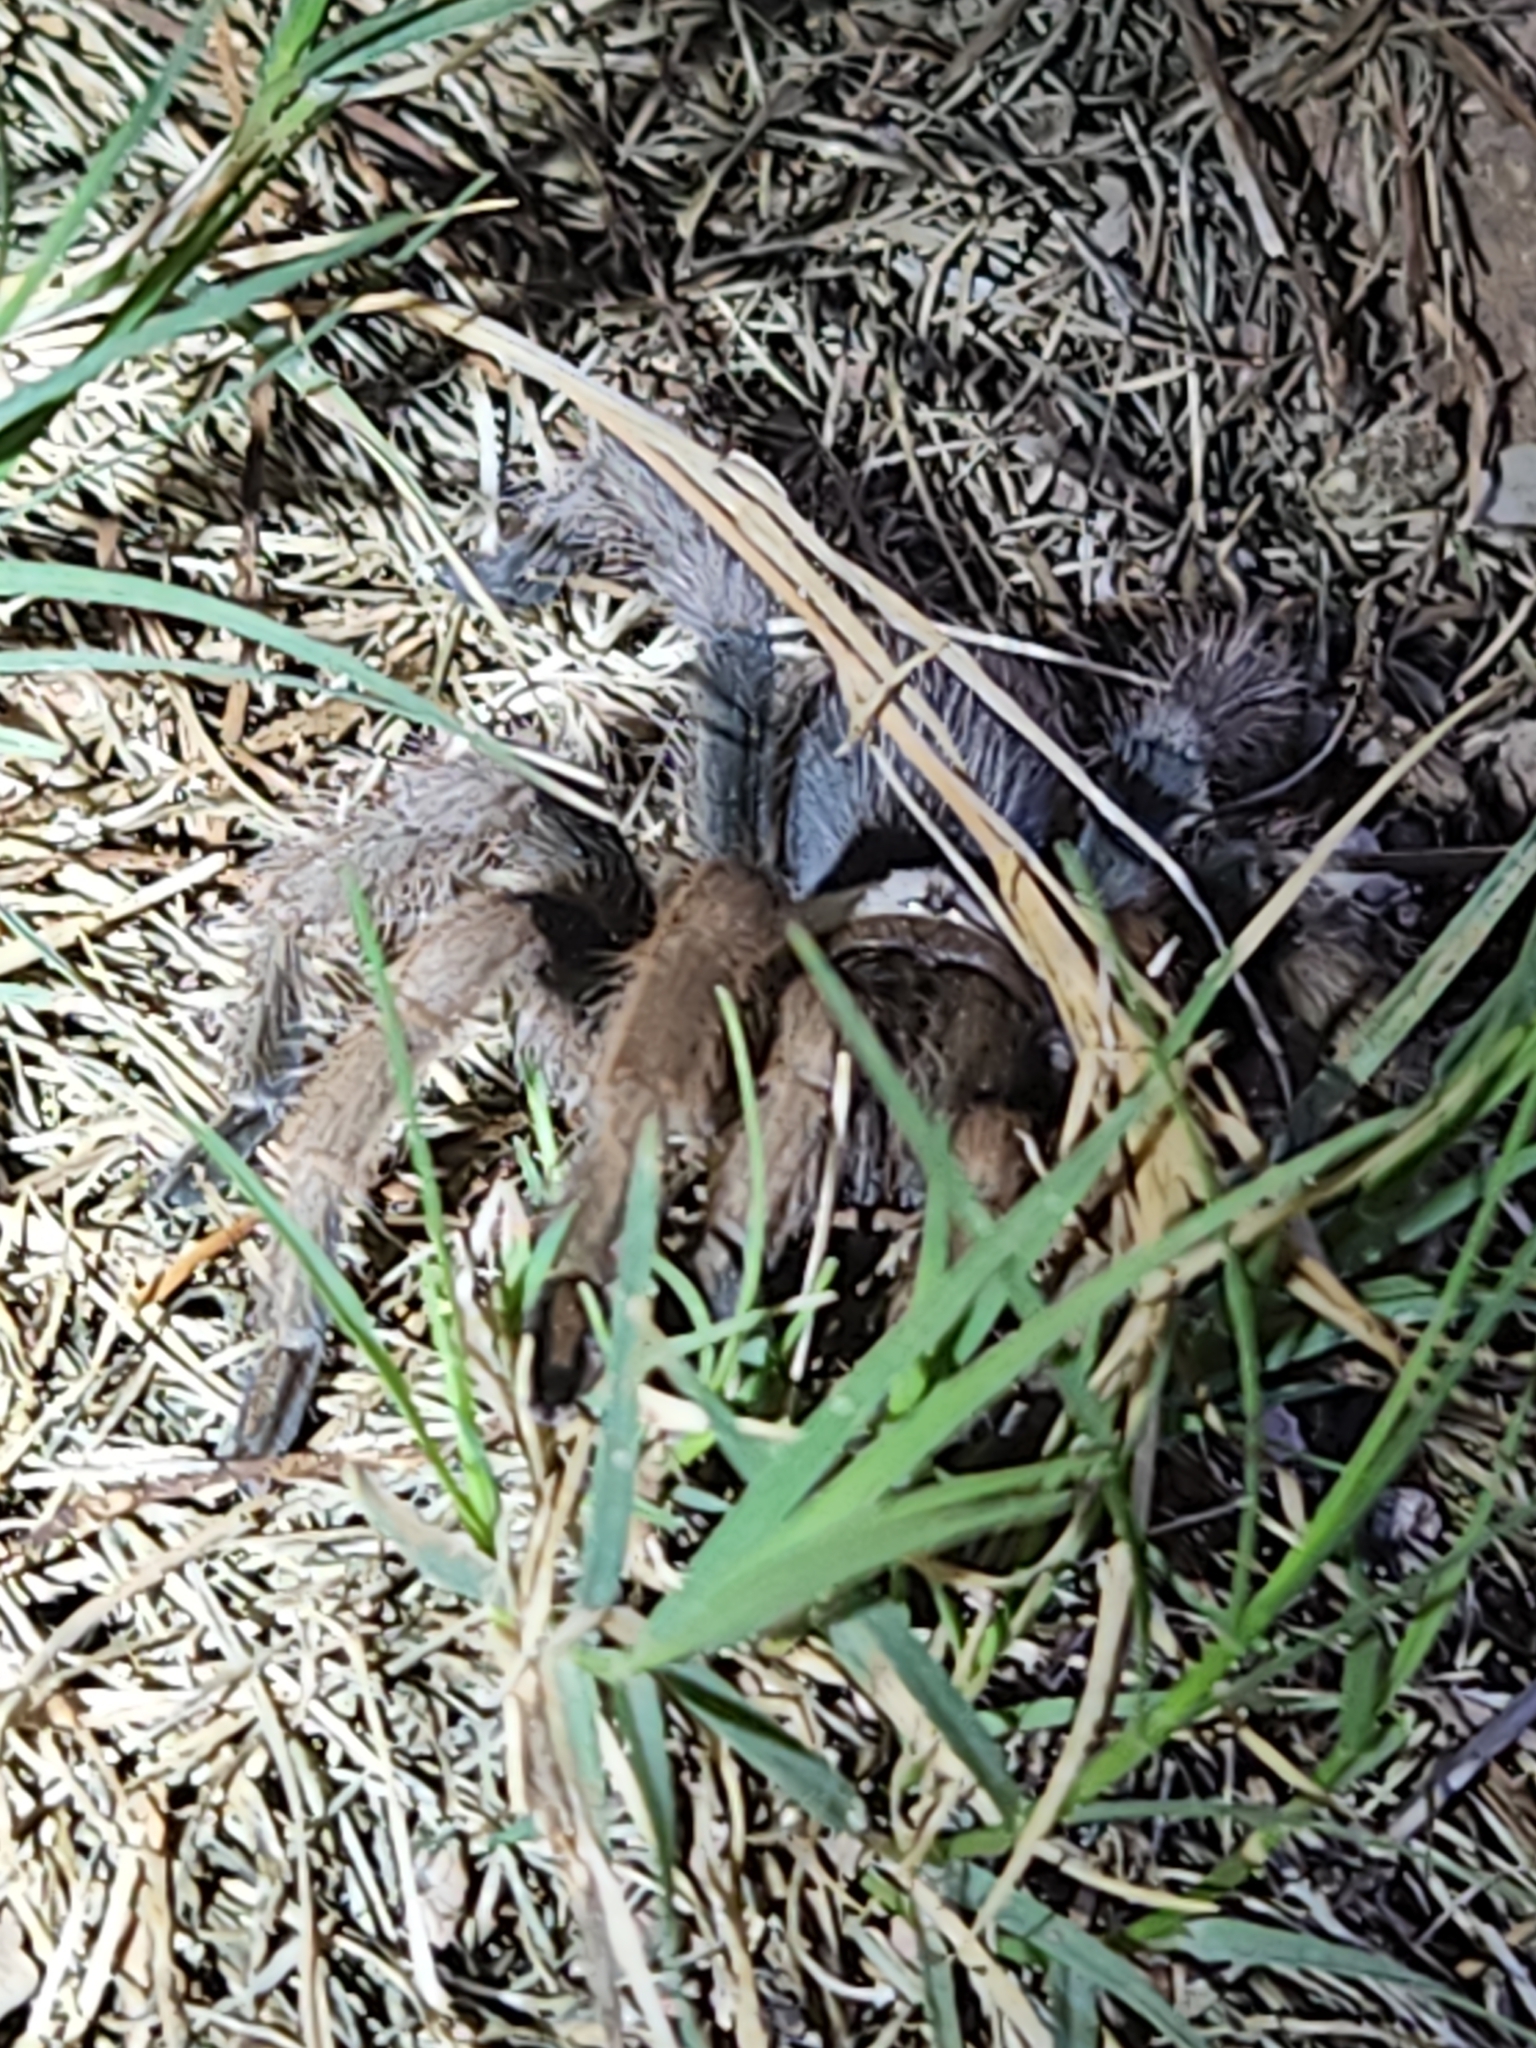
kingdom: Animalia
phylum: Arthropoda
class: Arachnida
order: Araneae
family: Theraphosidae
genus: Aphonopelma
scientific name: Aphonopelma chalcodes
